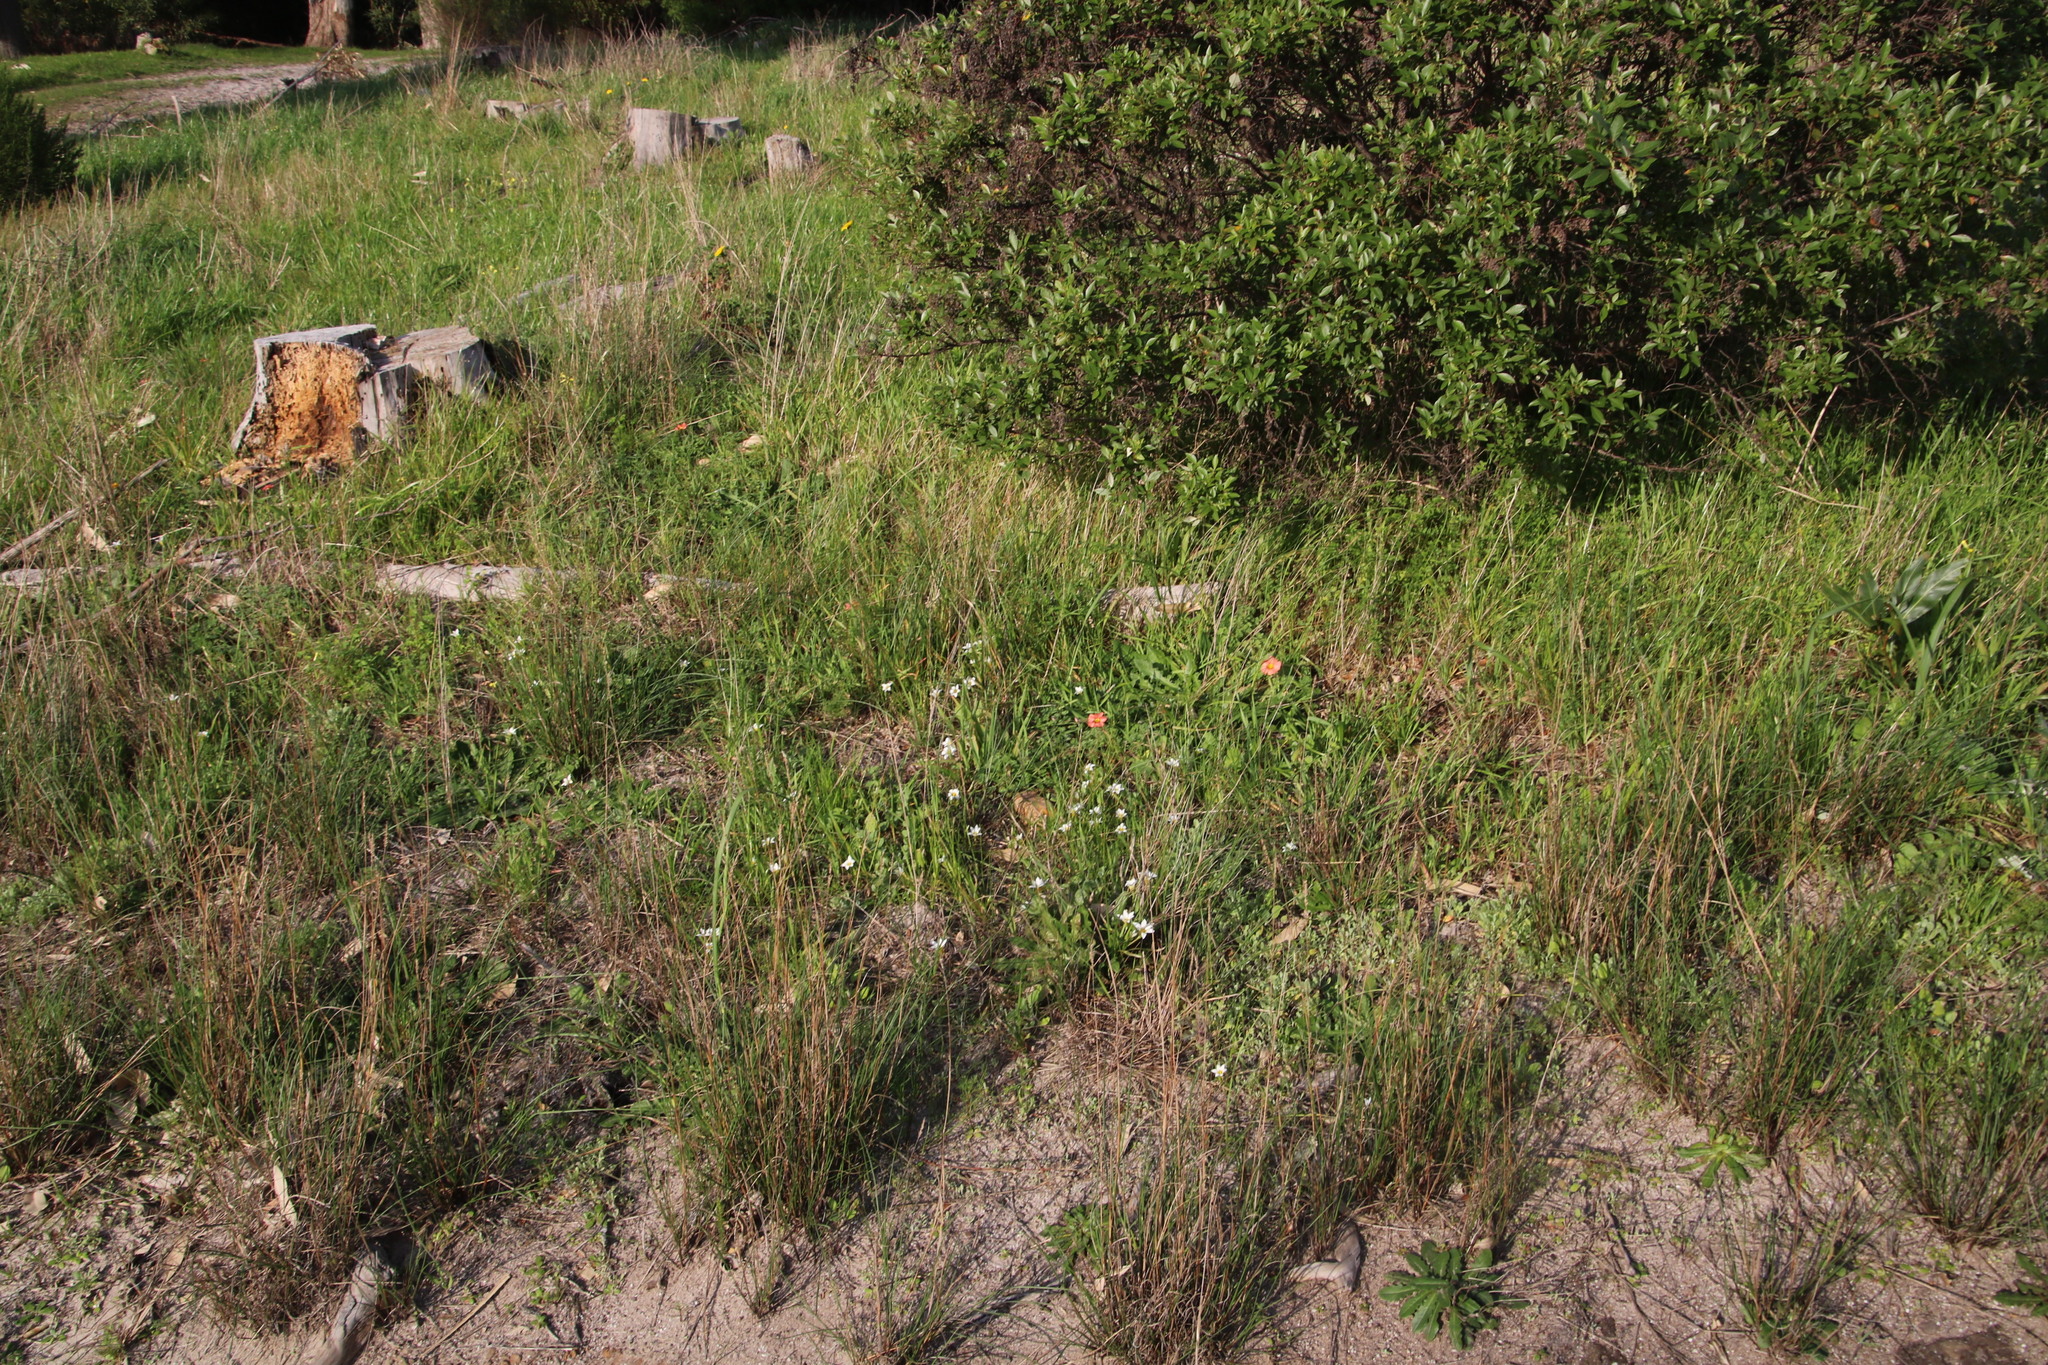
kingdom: Plantae
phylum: Tracheophyta
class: Liliopsida
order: Asparagales
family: Iridaceae
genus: Romulea
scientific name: Romulea flava
